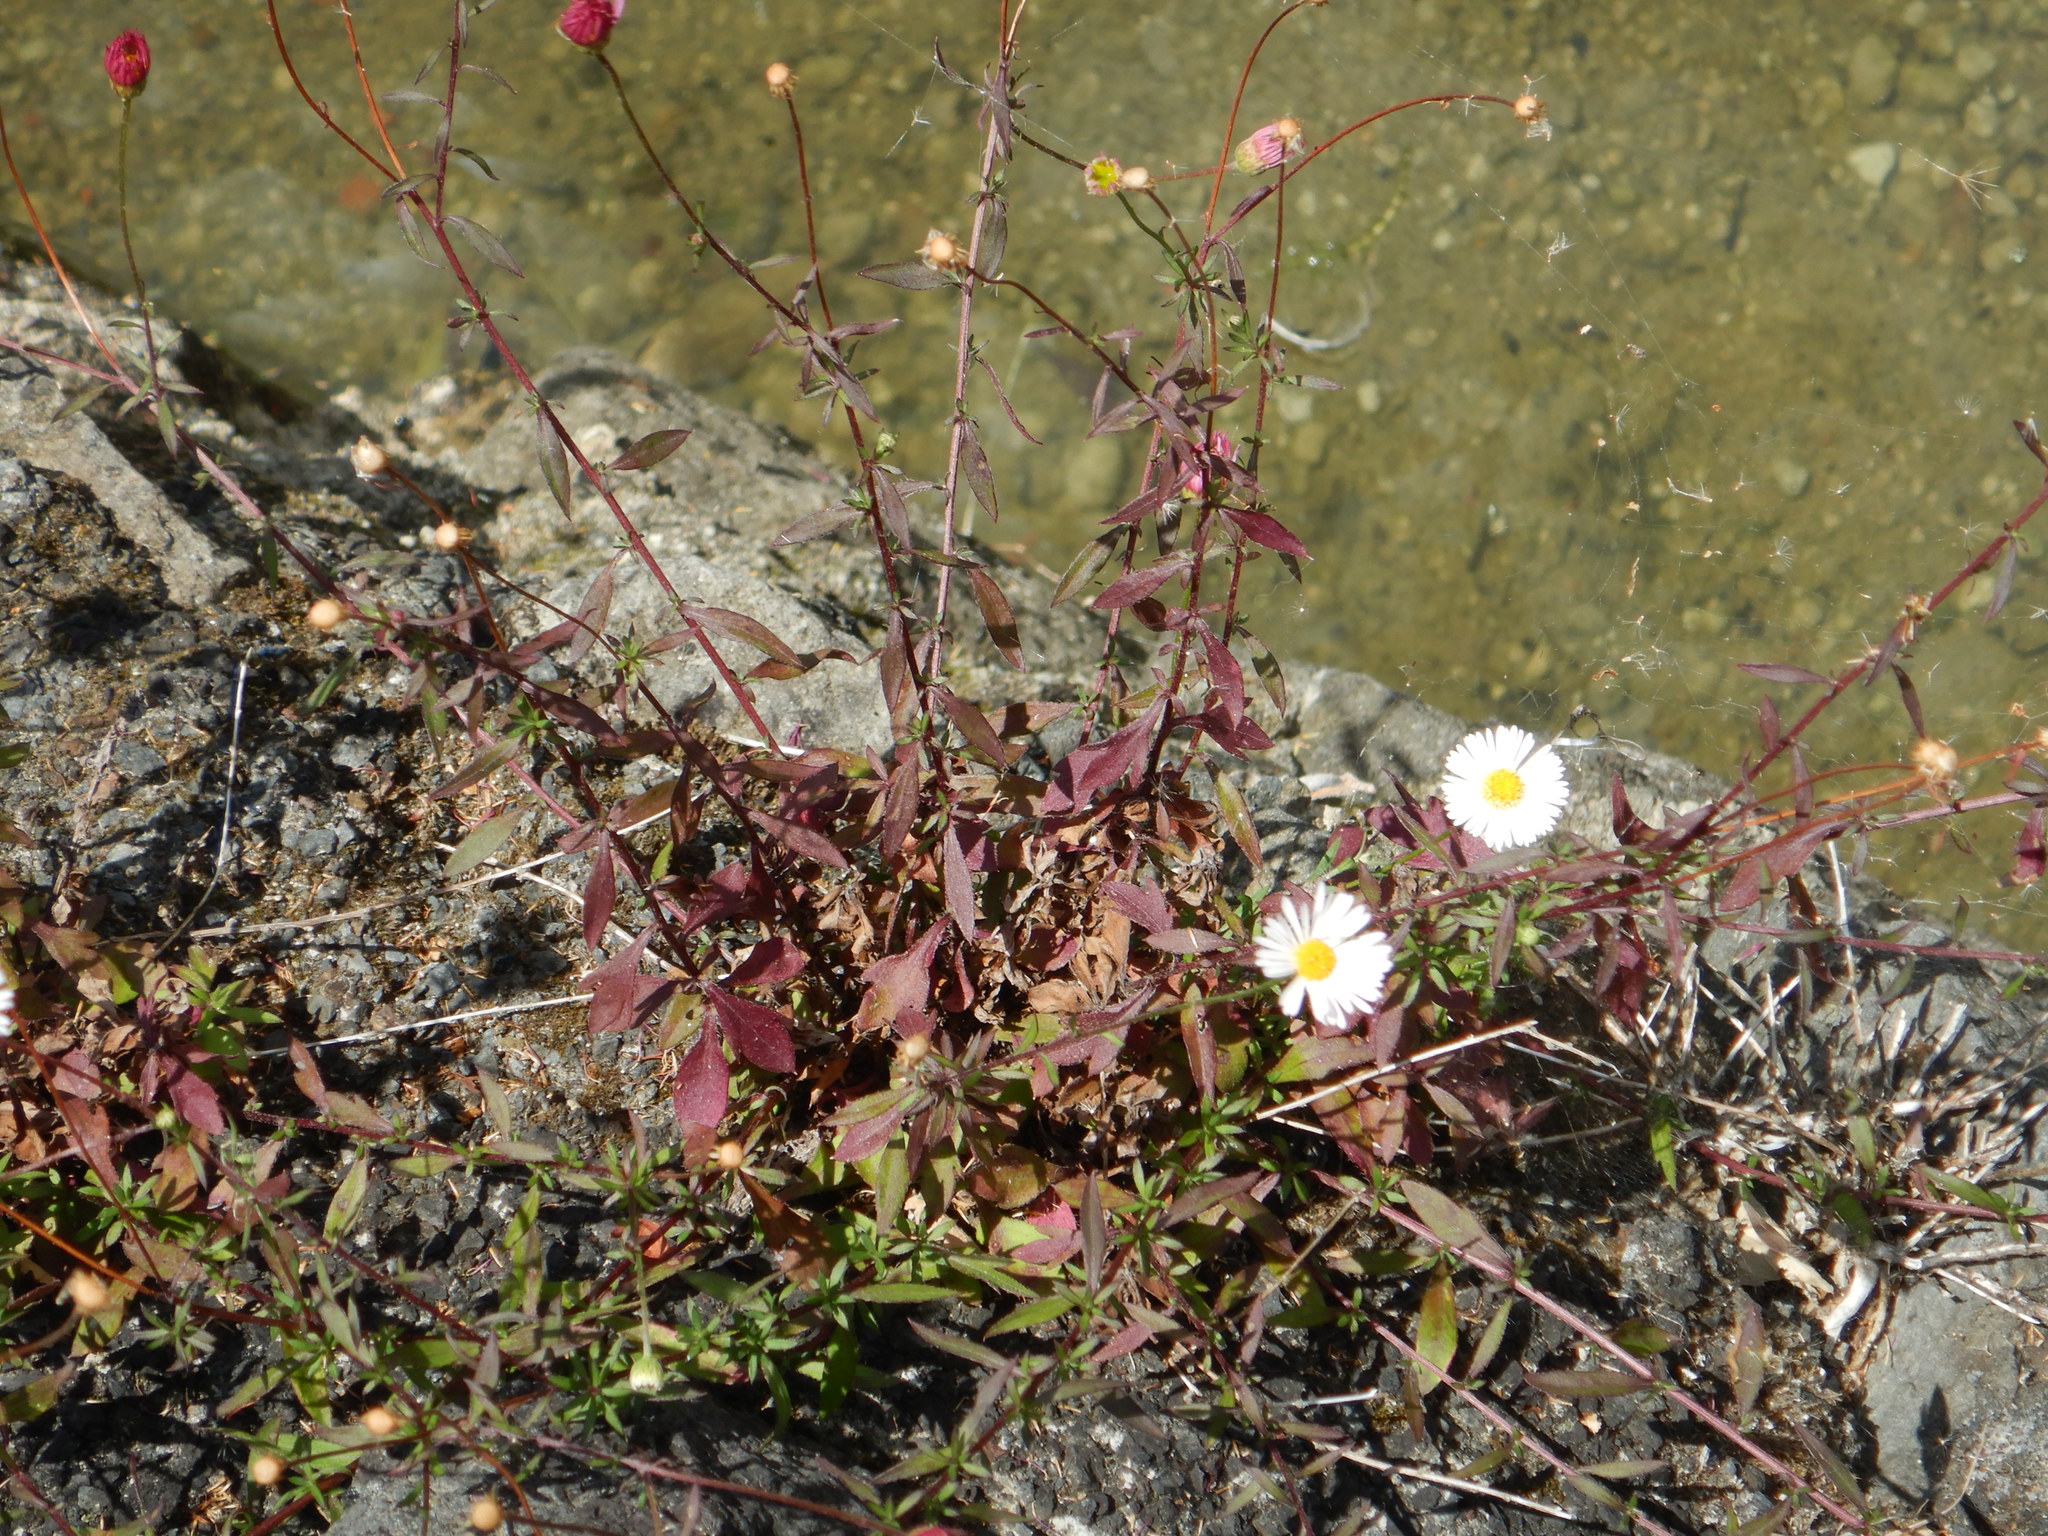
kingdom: Plantae
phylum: Tracheophyta
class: Magnoliopsida
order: Asterales
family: Asteraceae
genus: Erigeron
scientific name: Erigeron karvinskianus
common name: Mexican fleabane
